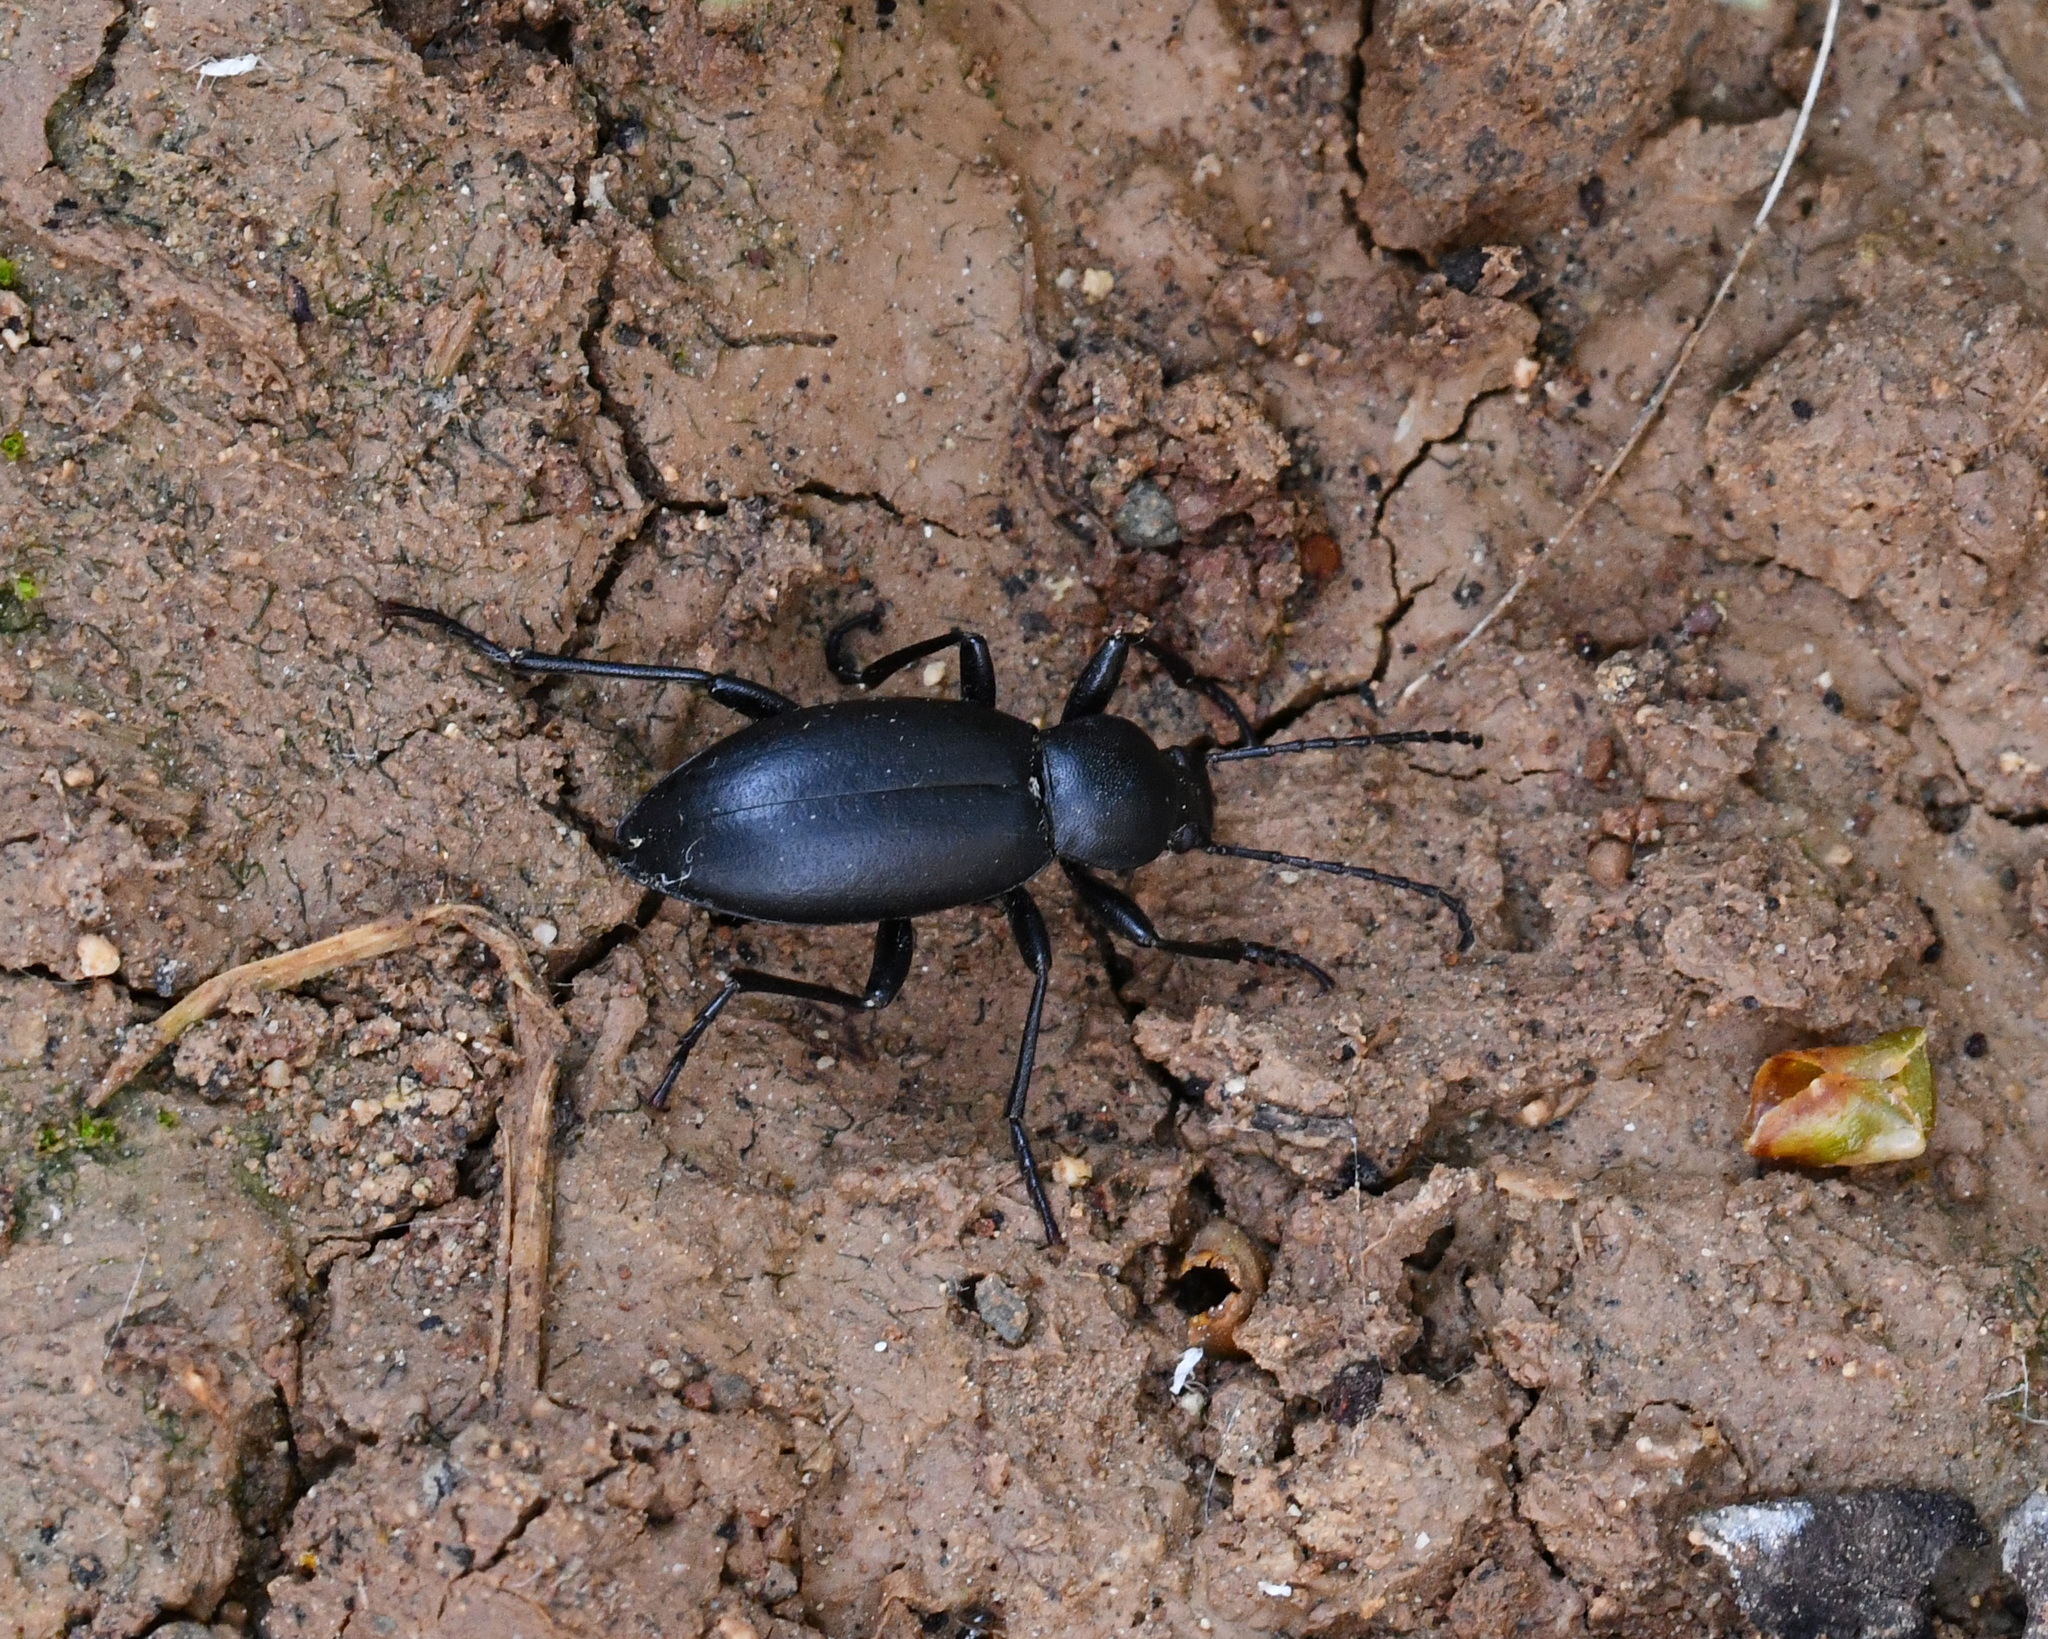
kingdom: Animalia
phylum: Arthropoda
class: Insecta
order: Coleoptera
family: Tenebrionidae
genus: Entomogonus
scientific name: Entomogonus obtusus
